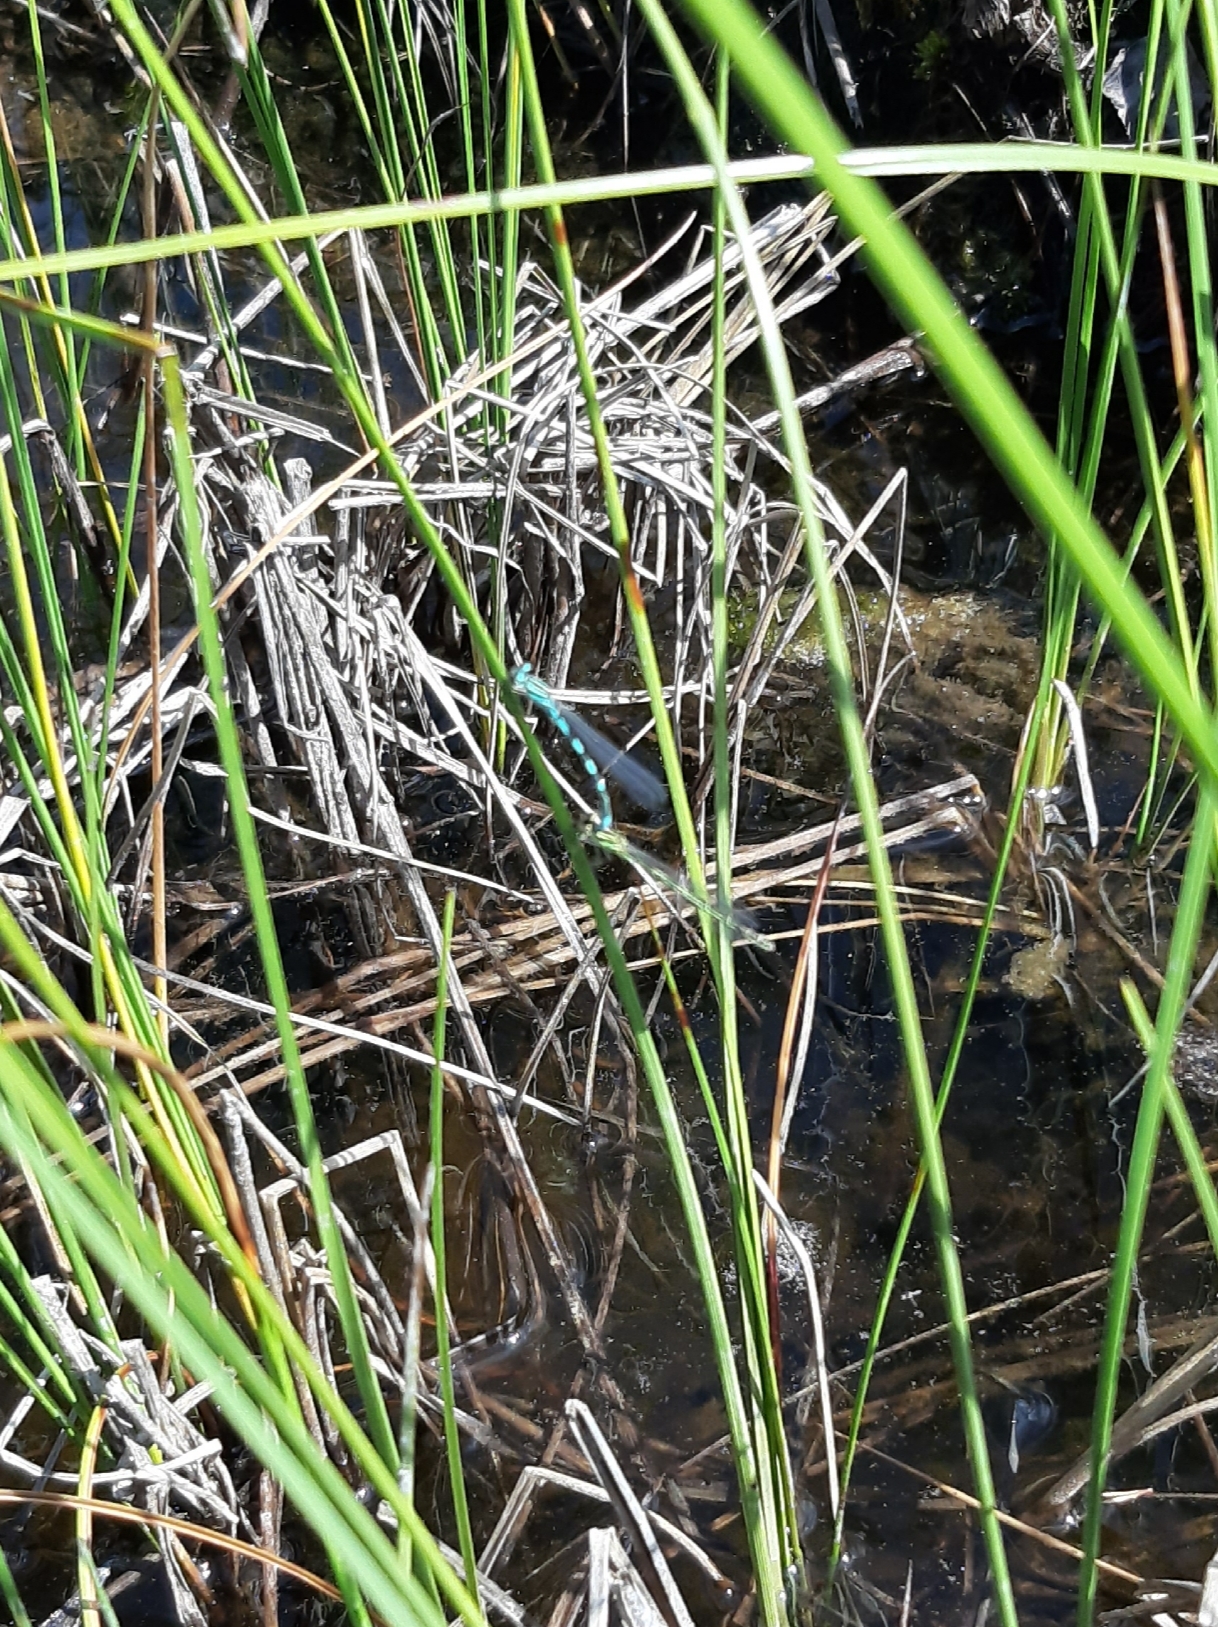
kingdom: Animalia
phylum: Arthropoda
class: Insecta
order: Odonata
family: Coenagrionidae
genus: Enallagma
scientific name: Enallagma cyathigerum
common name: Common blue damselfly
